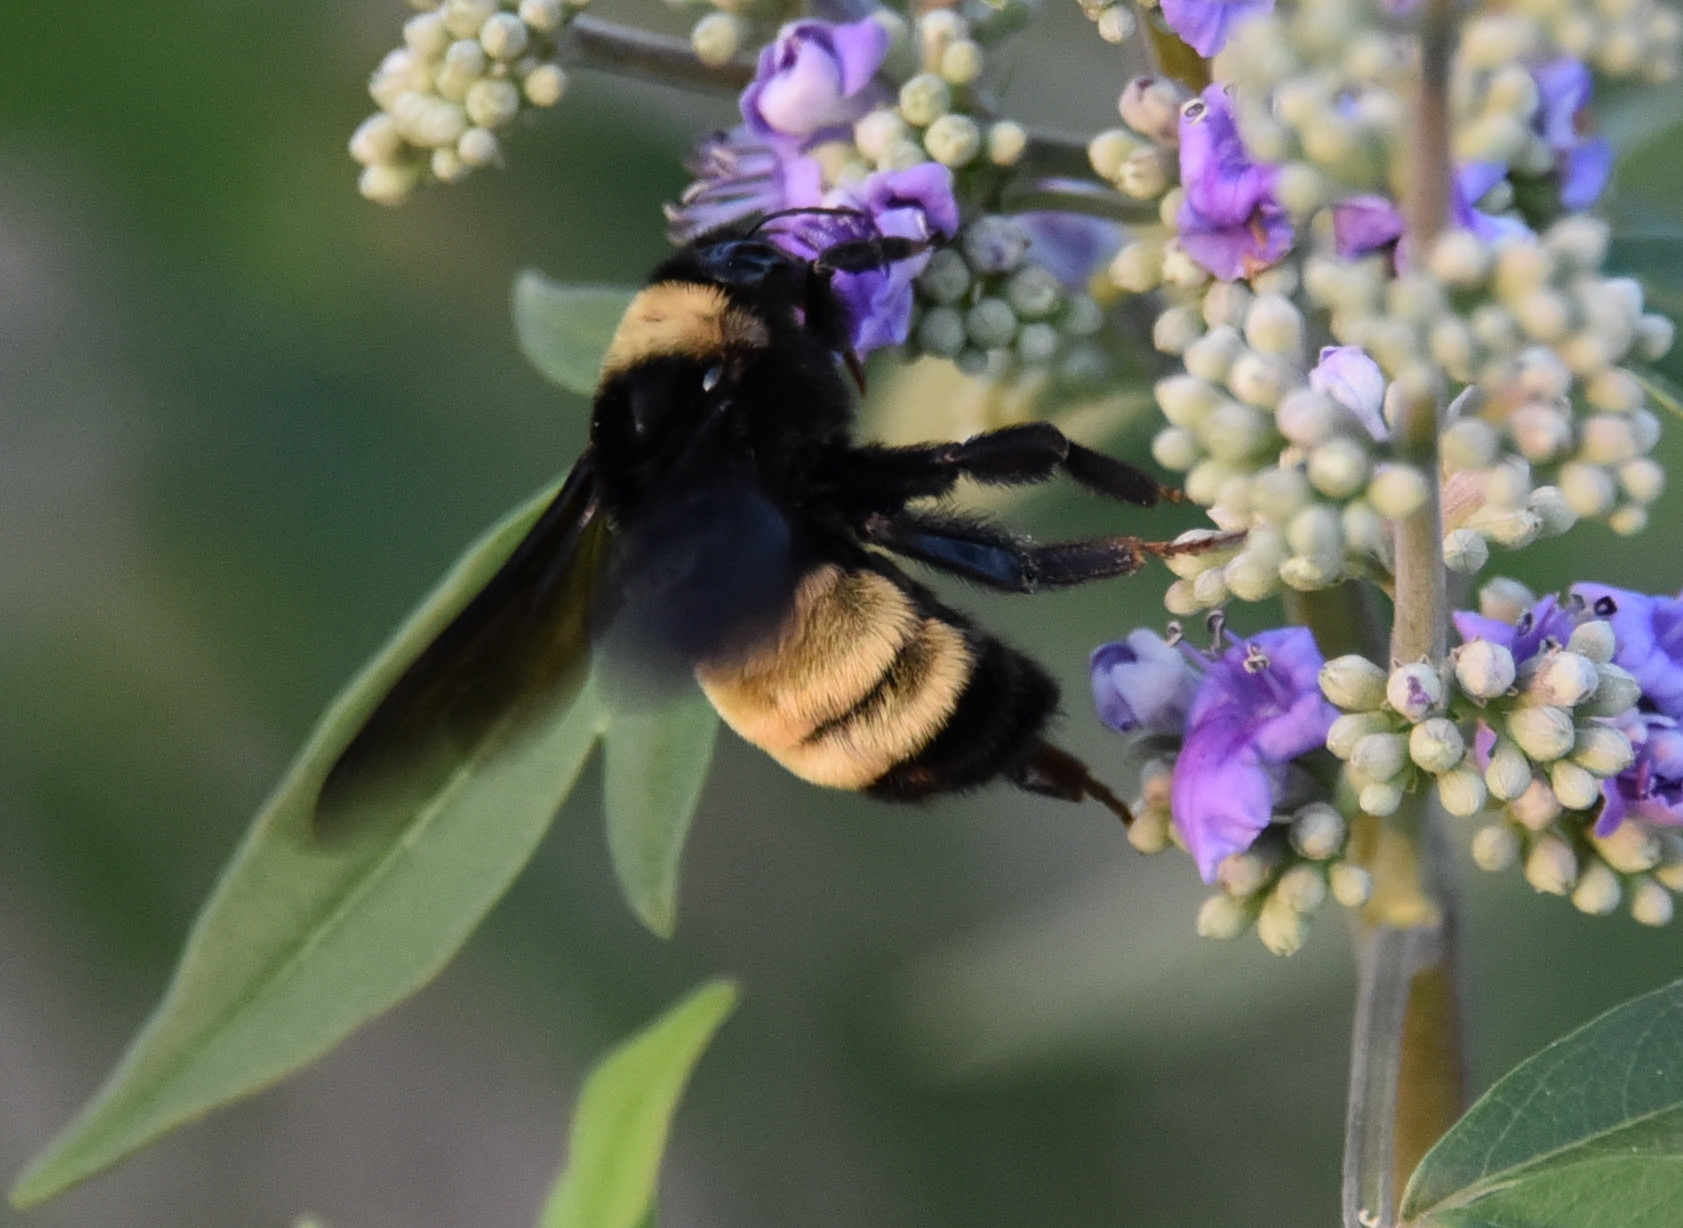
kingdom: Animalia
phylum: Arthropoda
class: Insecta
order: Hymenoptera
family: Apidae
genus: Bombus
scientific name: Bombus pensylvanicus
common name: Bumble bee
